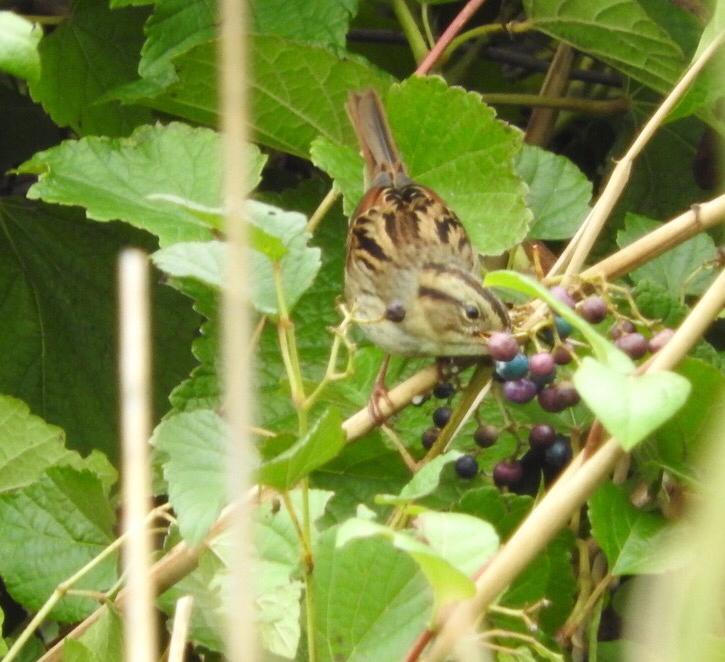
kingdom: Animalia
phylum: Chordata
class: Aves
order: Passeriformes
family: Passerellidae
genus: Melospiza
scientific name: Melospiza georgiana
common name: Swamp sparrow
